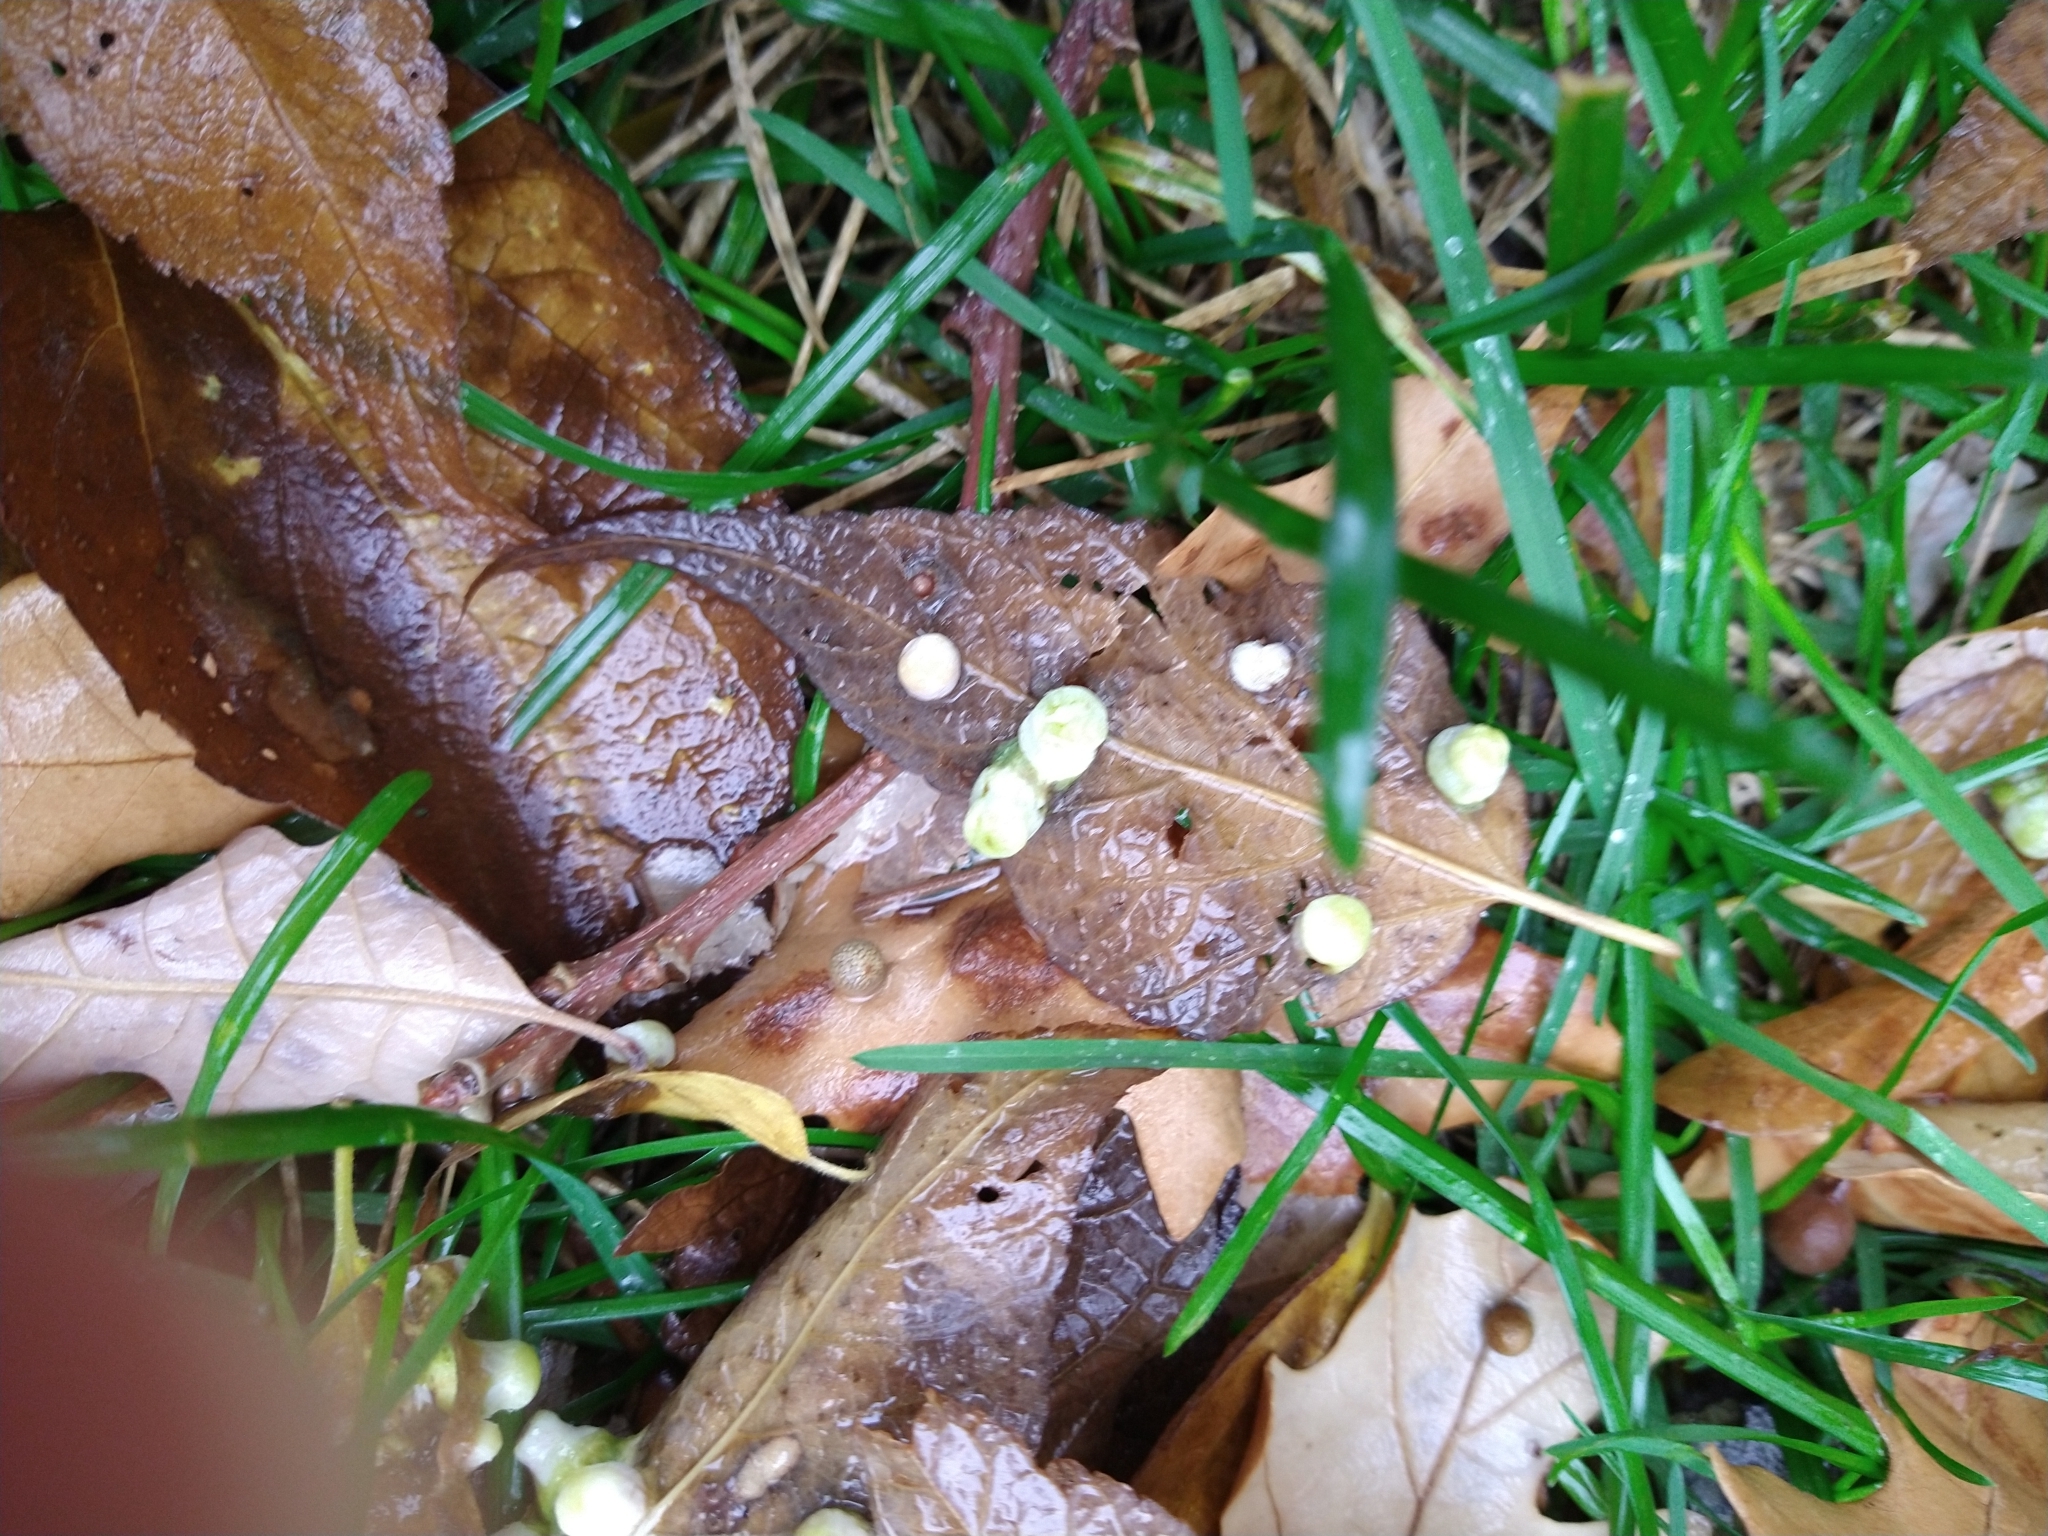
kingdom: Animalia
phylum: Arthropoda
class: Insecta
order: Hemiptera
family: Aphalaridae
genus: Pachypsylla
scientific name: Pachypsylla celtidismamma
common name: Hackberry nipplegall psyllid
